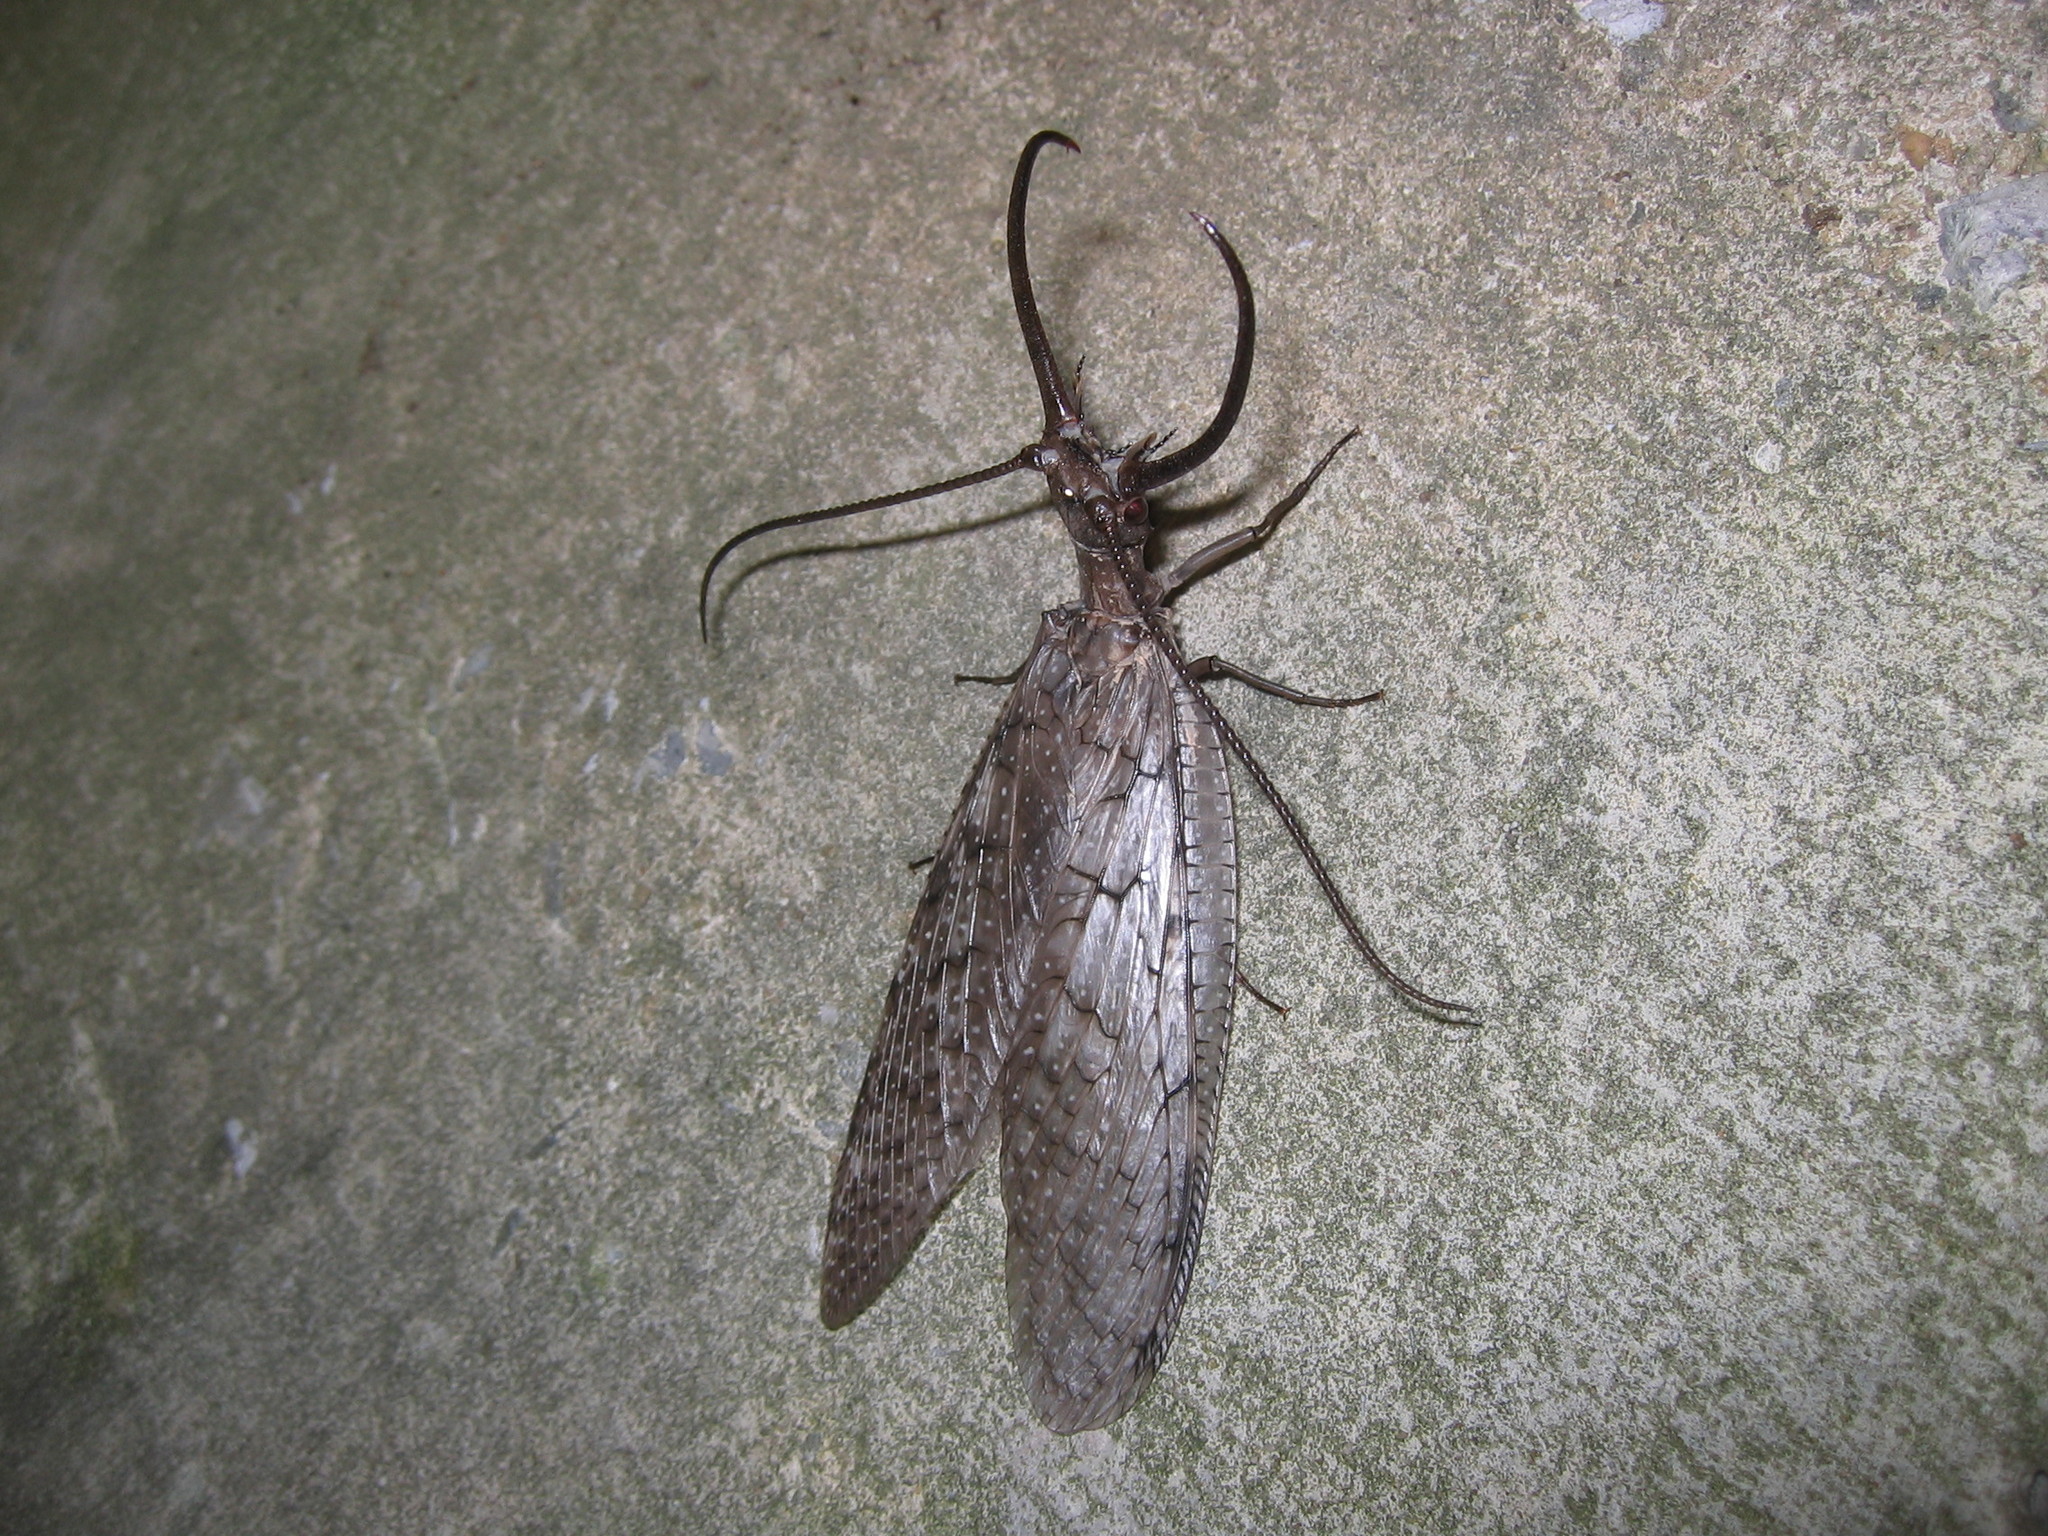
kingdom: Animalia
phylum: Arthropoda
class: Insecta
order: Megaloptera
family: Corydalidae
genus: Corydalus
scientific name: Corydalus cornutus
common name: Dobsonfly
